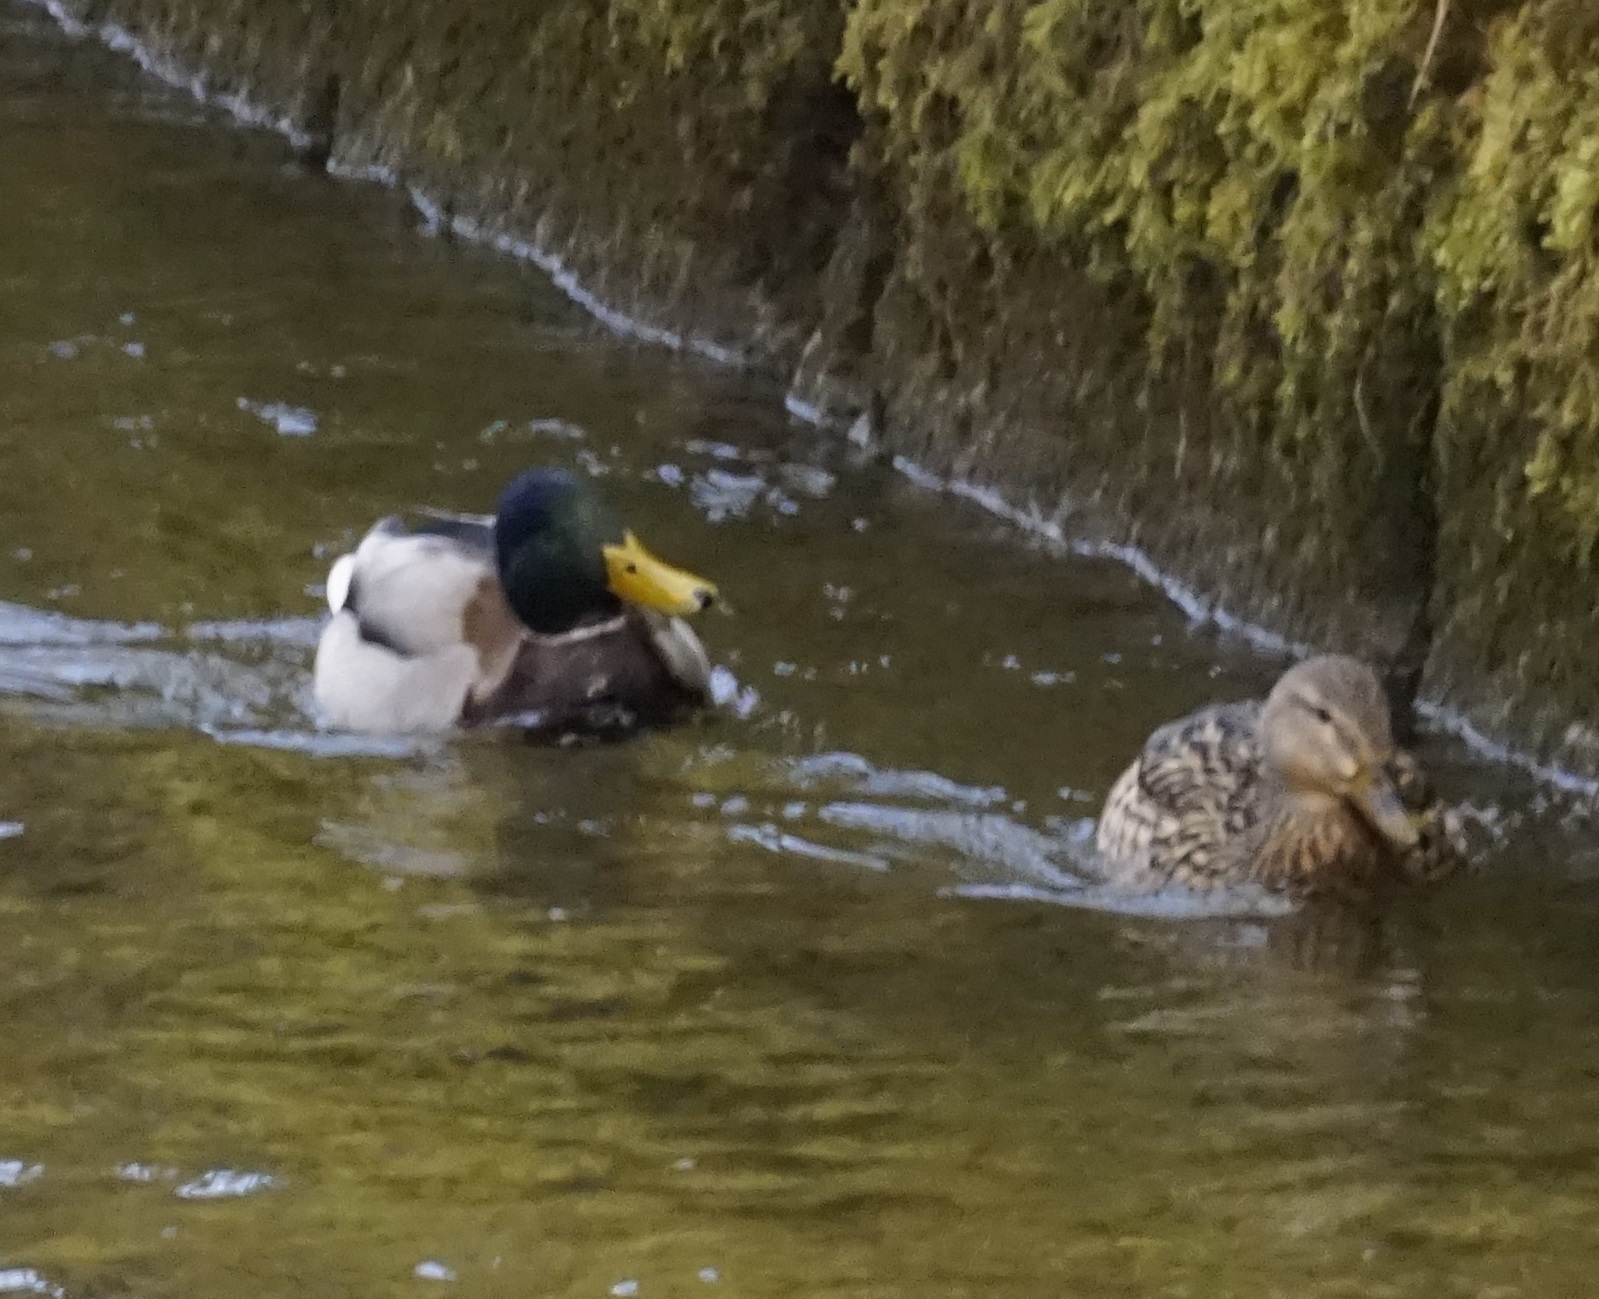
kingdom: Animalia
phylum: Chordata
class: Aves
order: Anseriformes
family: Anatidae
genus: Anas
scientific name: Anas platyrhynchos
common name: Mallard
